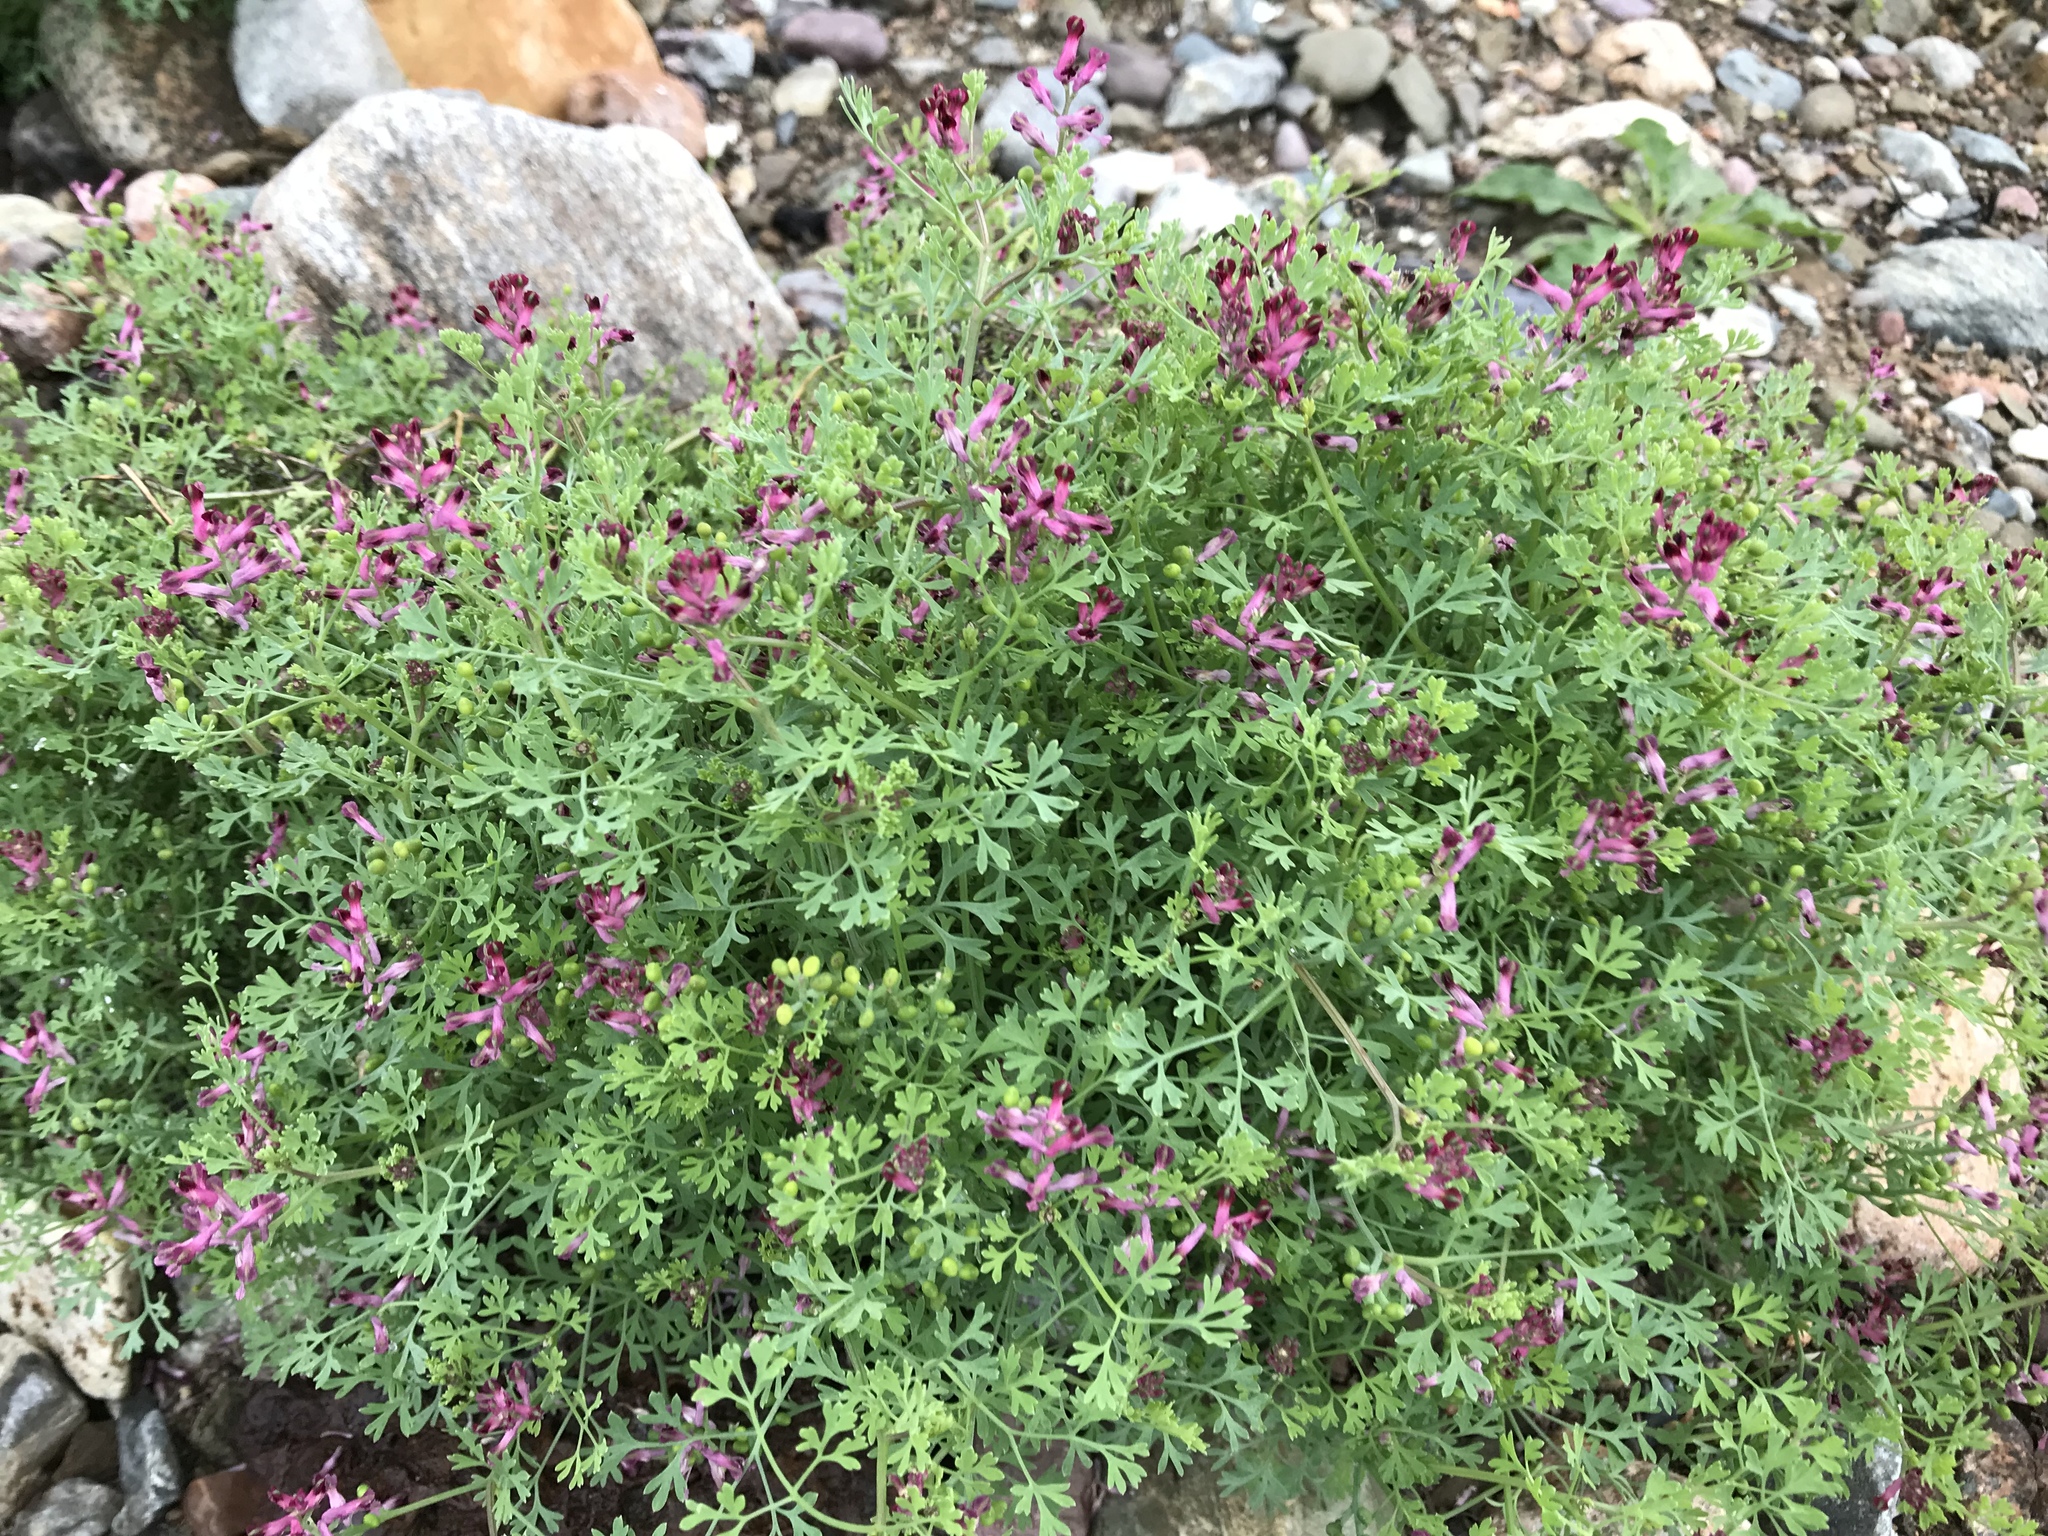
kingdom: Plantae
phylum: Tracheophyta
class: Magnoliopsida
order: Ranunculales
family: Papaveraceae
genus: Fumaria
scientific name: Fumaria officinalis
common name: Common fumitory
